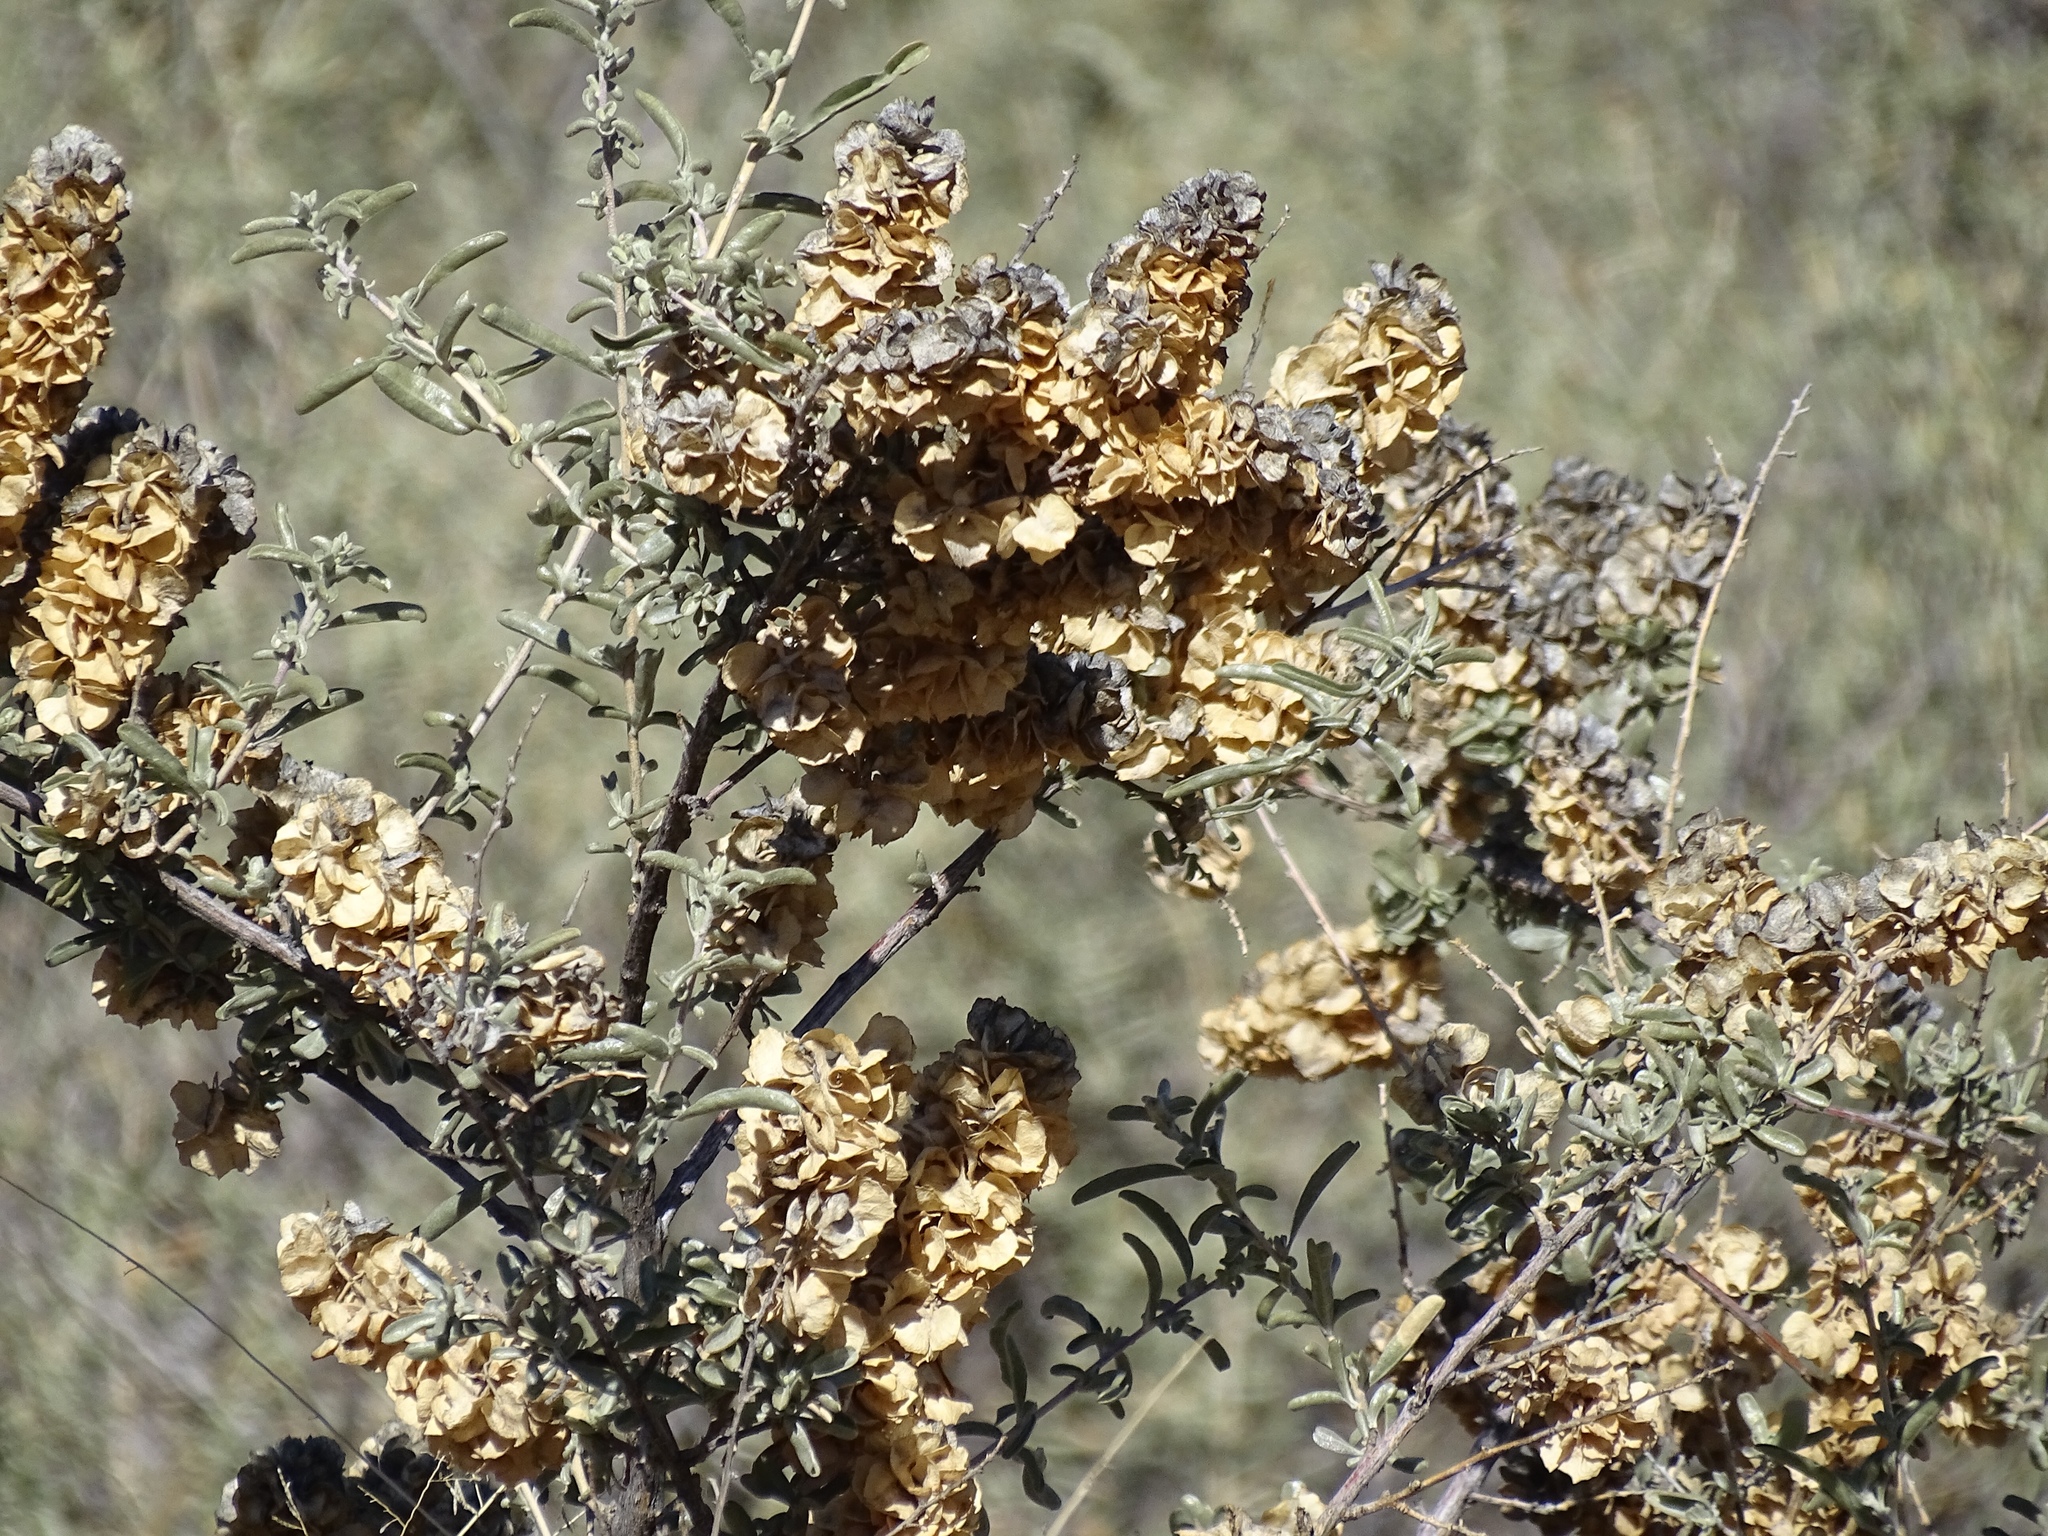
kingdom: Plantae
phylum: Tracheophyta
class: Magnoliopsida
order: Caryophyllales
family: Amaranthaceae
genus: Atriplex
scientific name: Atriplex canescens
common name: Four-wing saltbush
